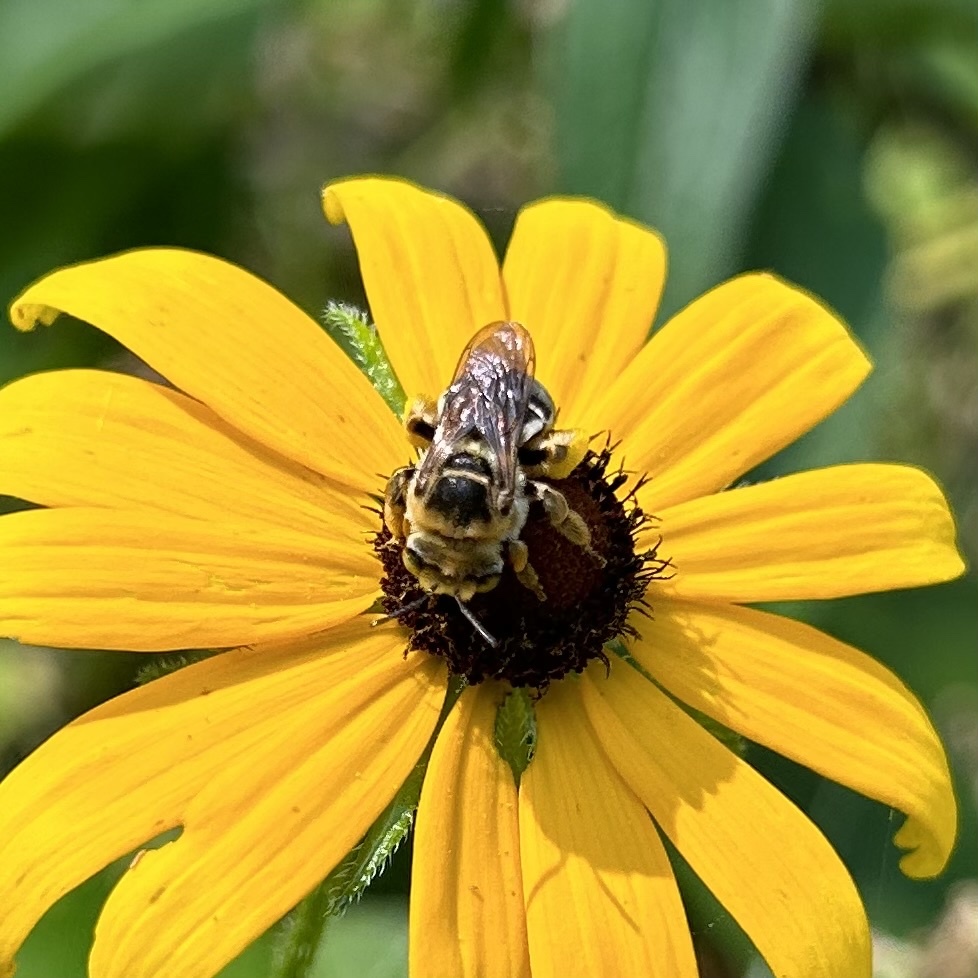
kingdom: Animalia
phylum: Arthropoda
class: Insecta
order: Hymenoptera
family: Apidae
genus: Svastra
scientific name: Svastra petulca
